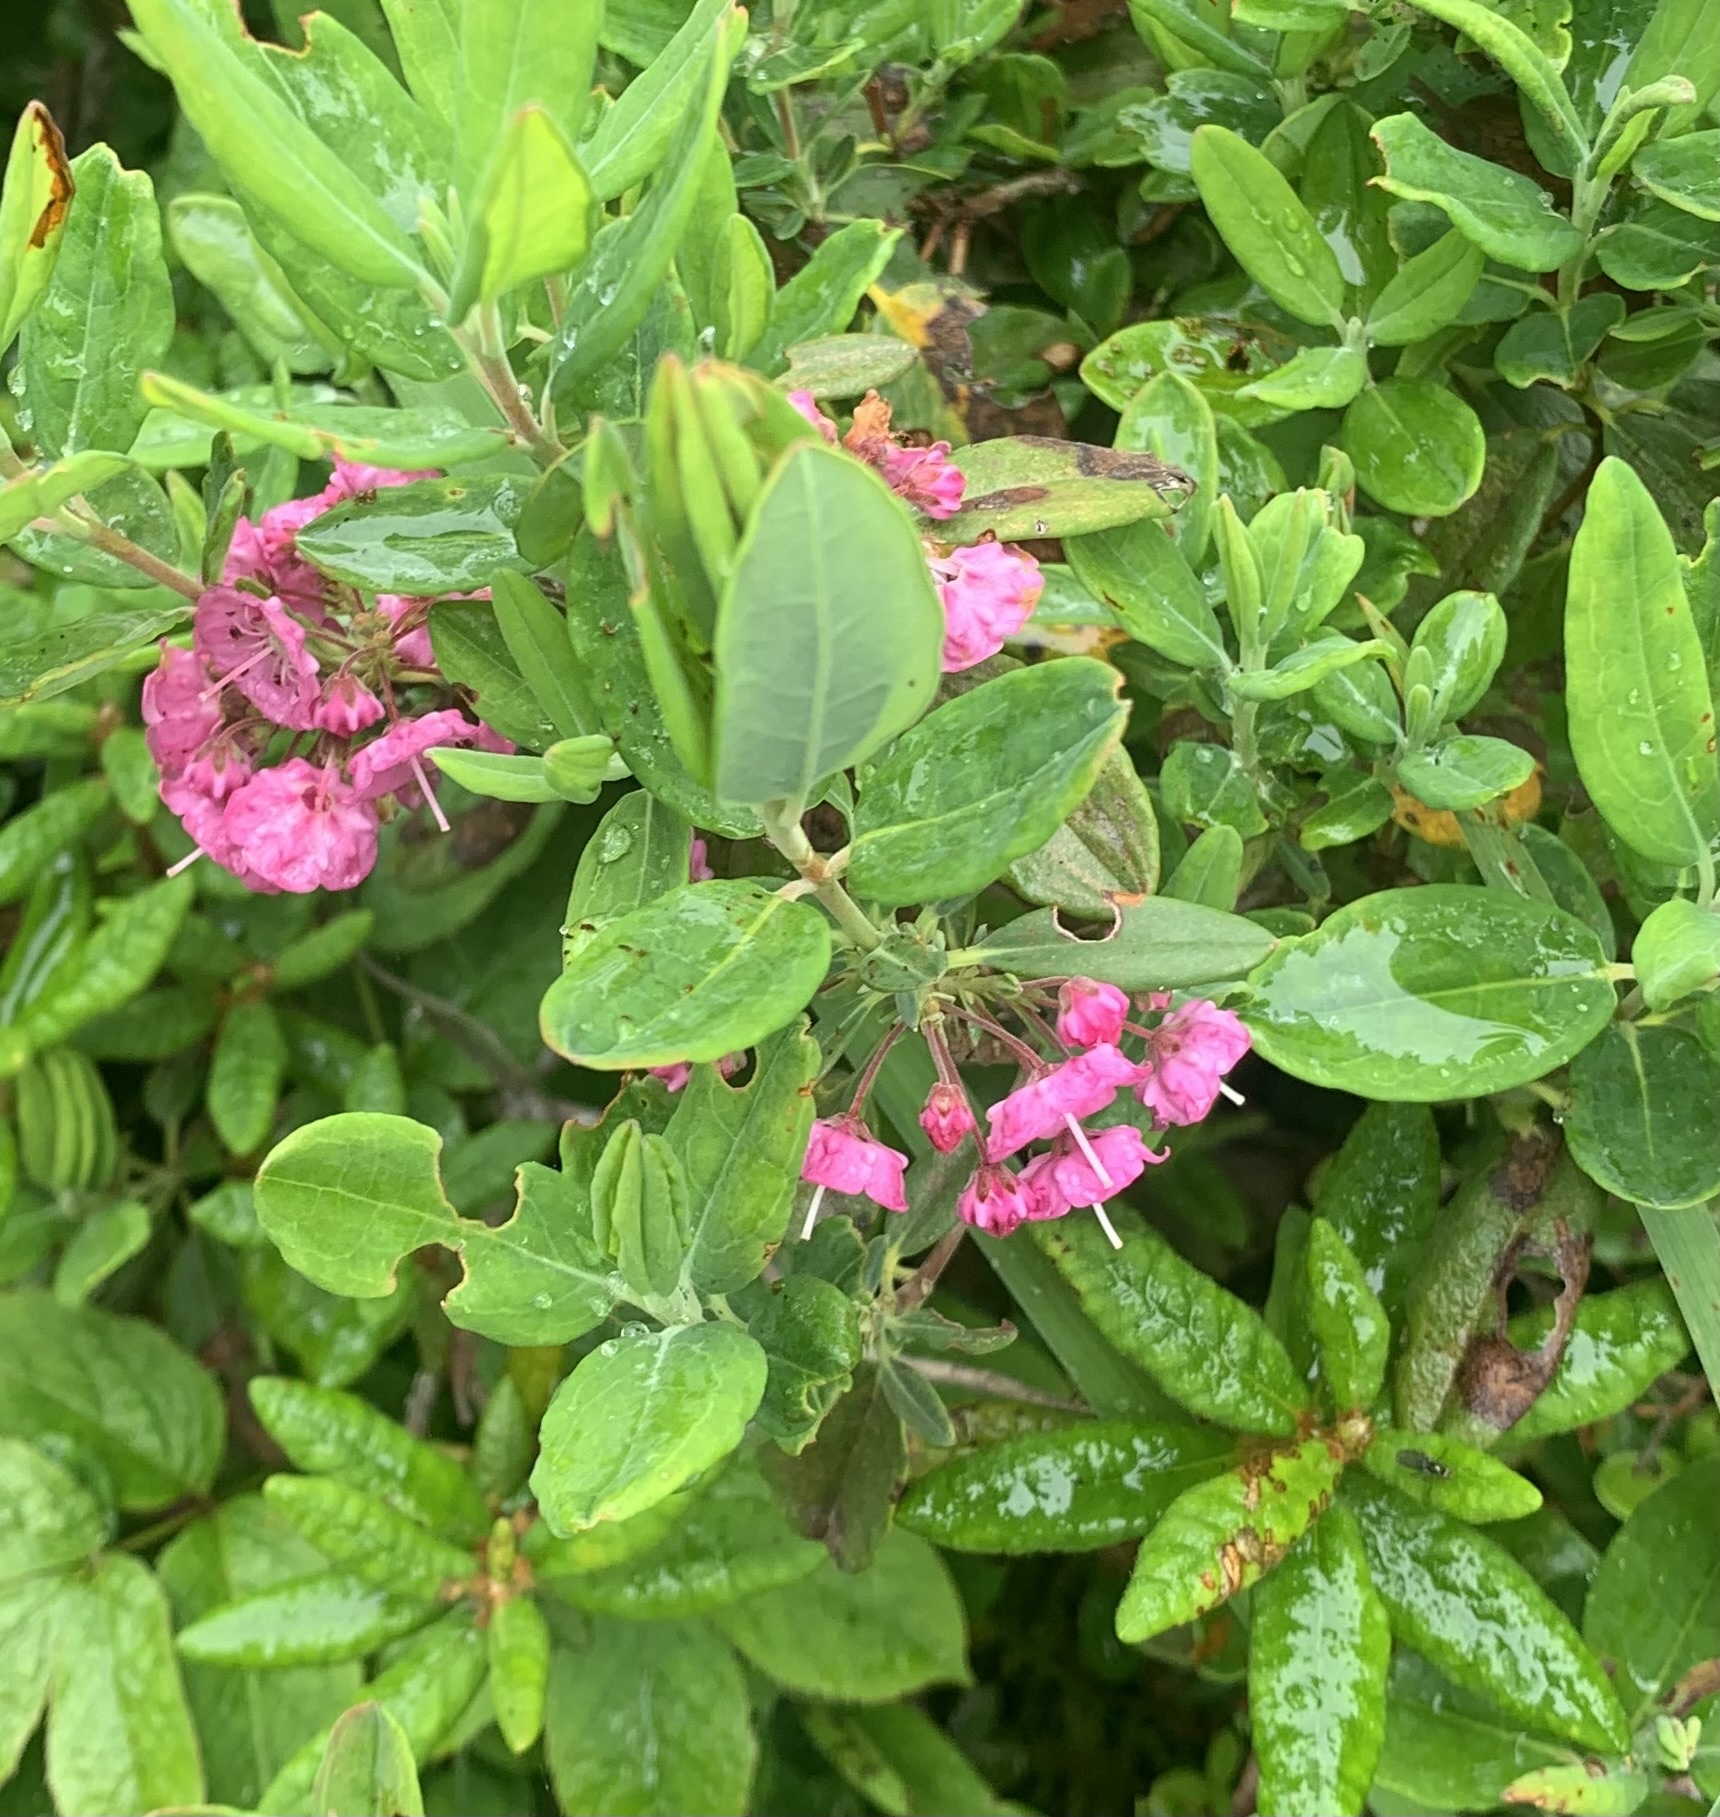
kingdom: Plantae
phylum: Tracheophyta
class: Magnoliopsida
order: Ericales
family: Ericaceae
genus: Kalmia
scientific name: Kalmia angustifolia
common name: Sheep-laurel
